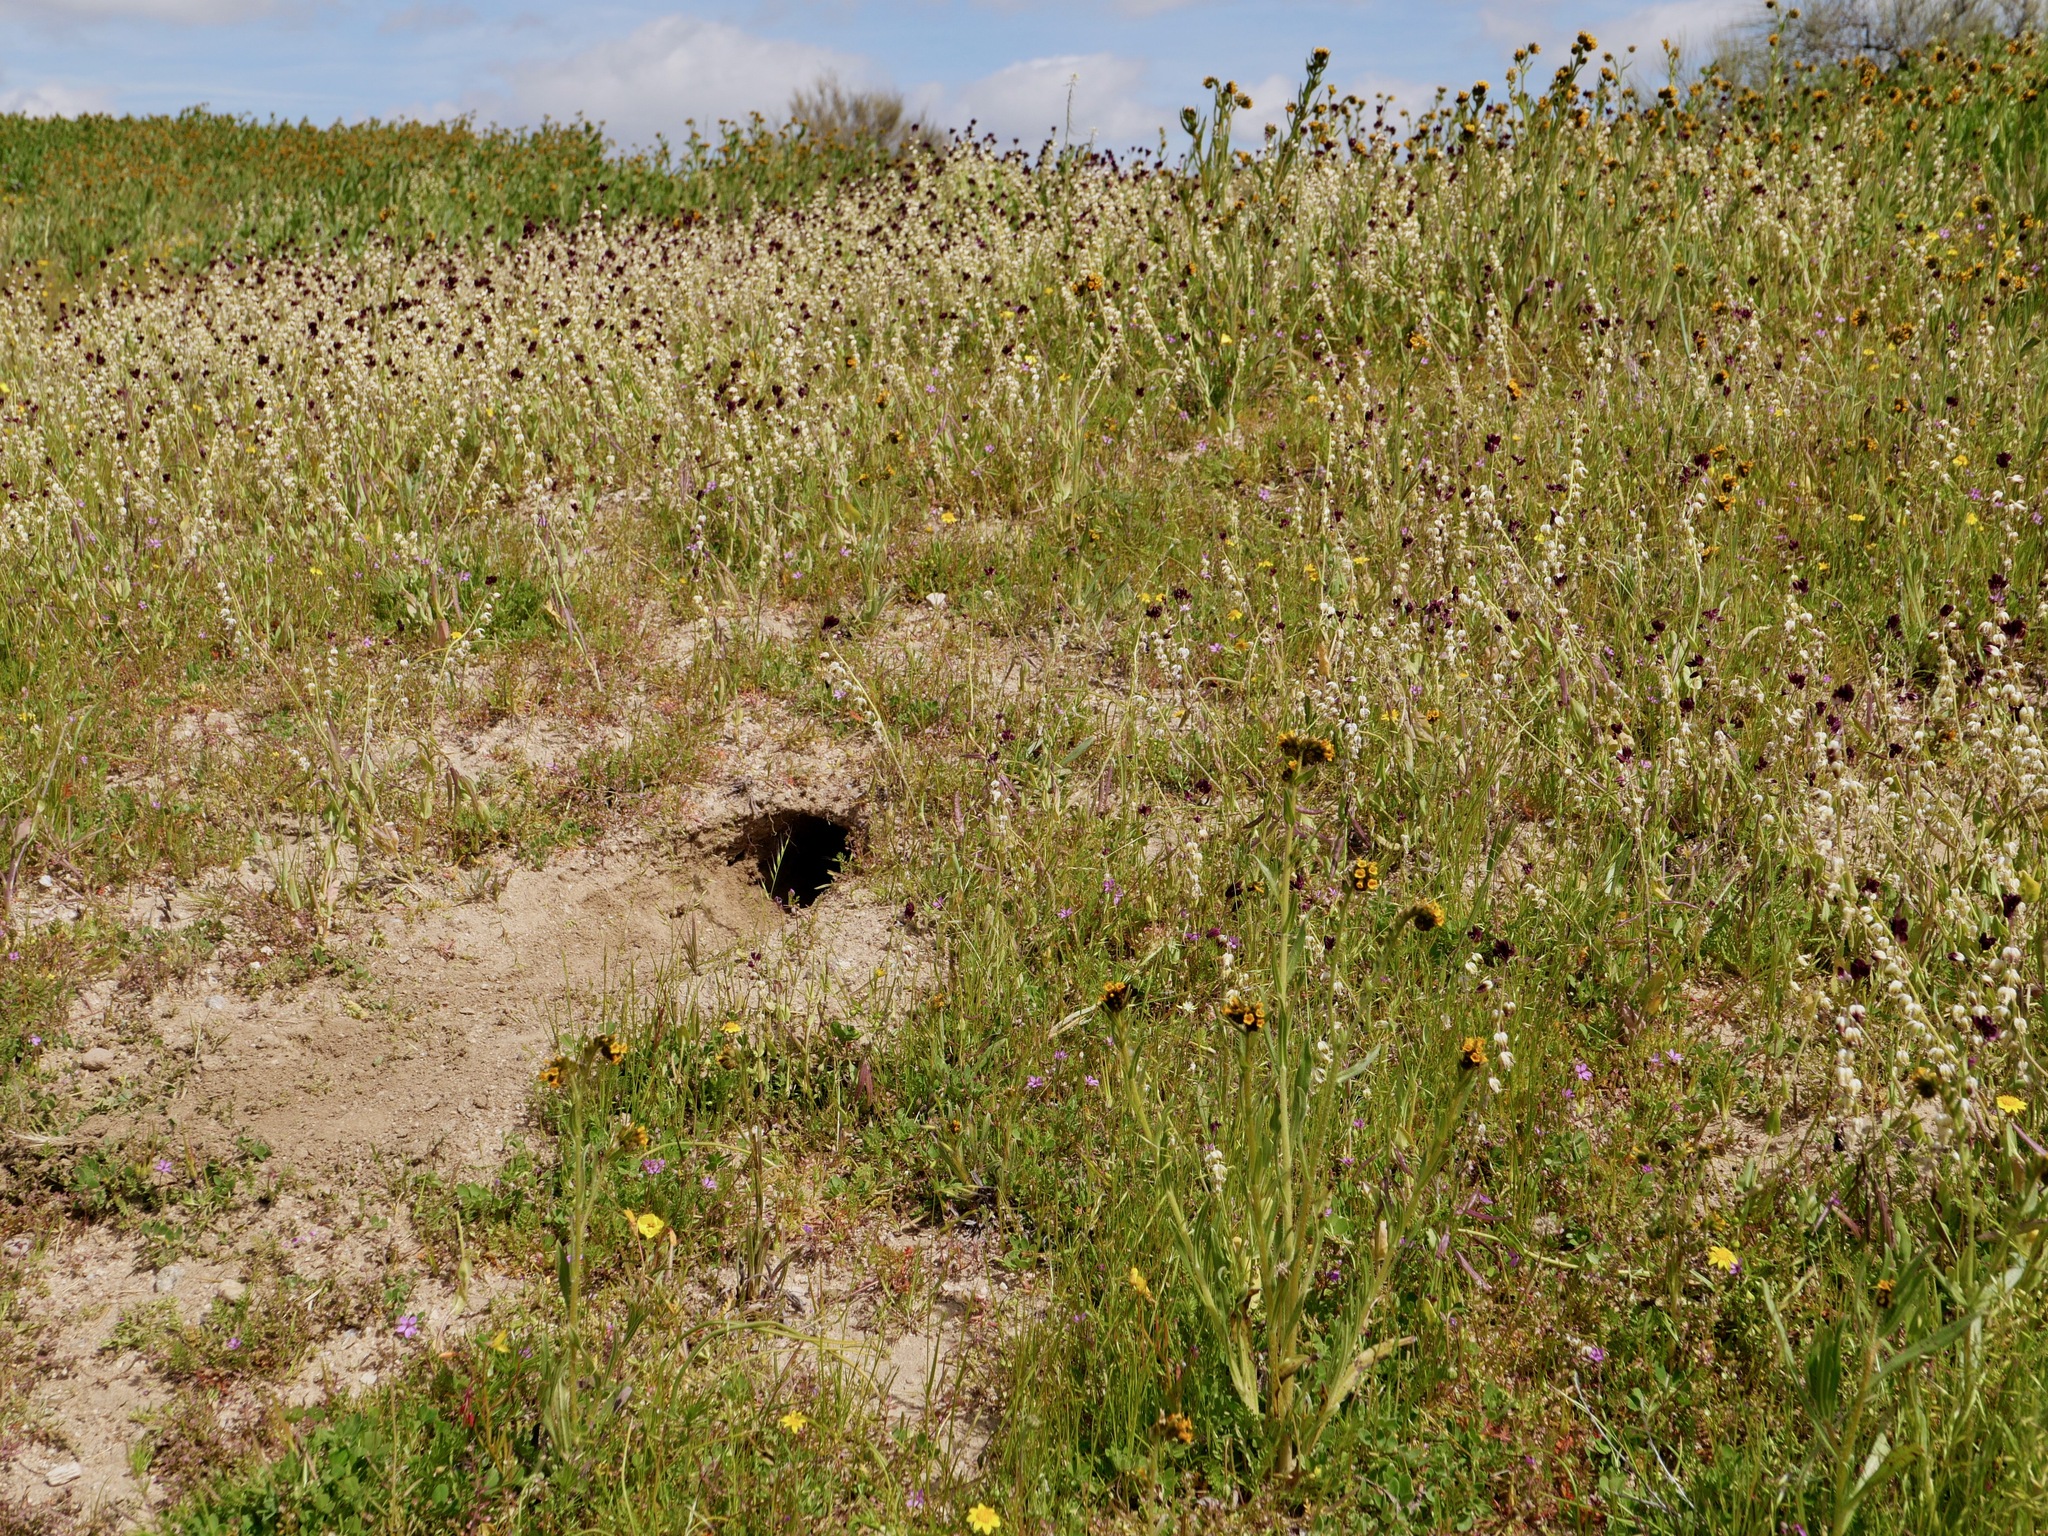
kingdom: Plantae
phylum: Tracheophyta
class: Magnoliopsida
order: Brassicales
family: Brassicaceae
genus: Streptanthus
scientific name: Streptanthus californicus
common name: California-jewel-flower
